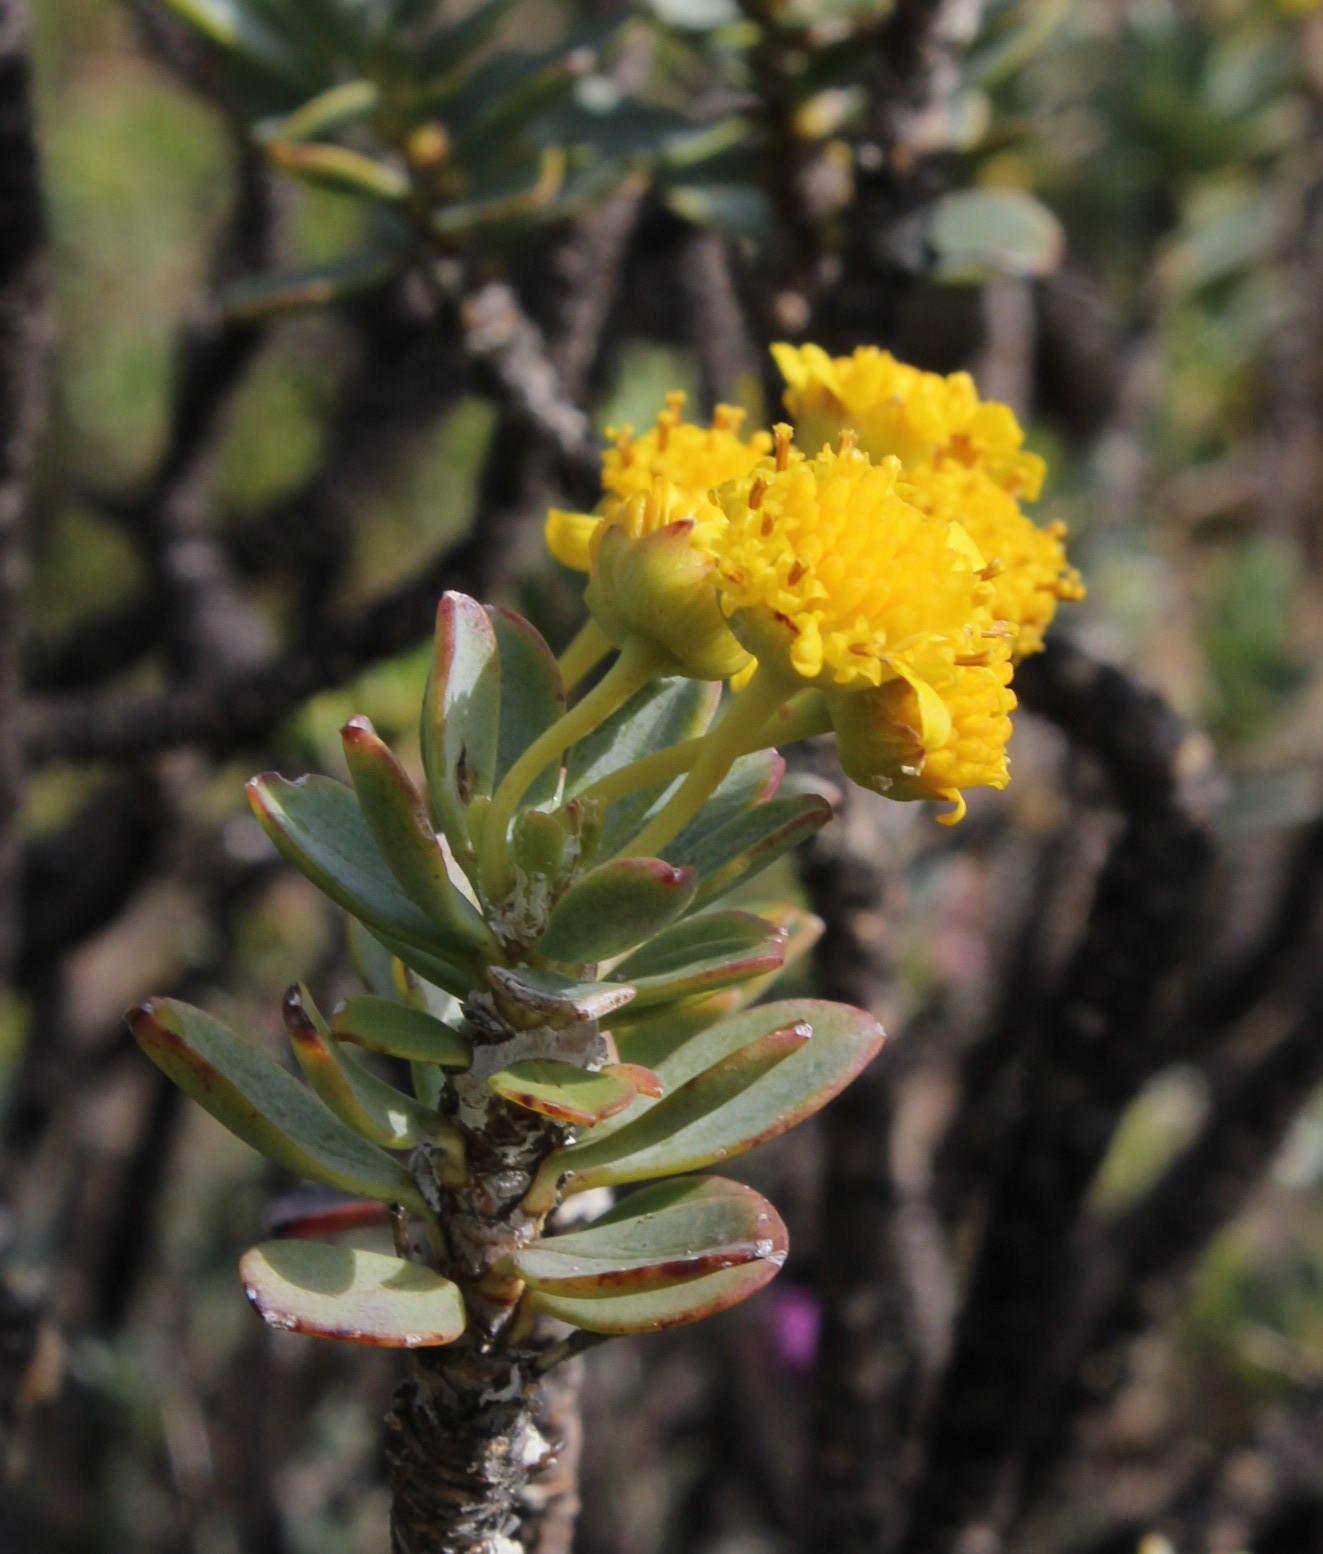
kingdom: Plantae
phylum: Tracheophyta
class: Magnoliopsida
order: Asterales
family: Asteraceae
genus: Euryops
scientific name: Euryops lateriflorus
